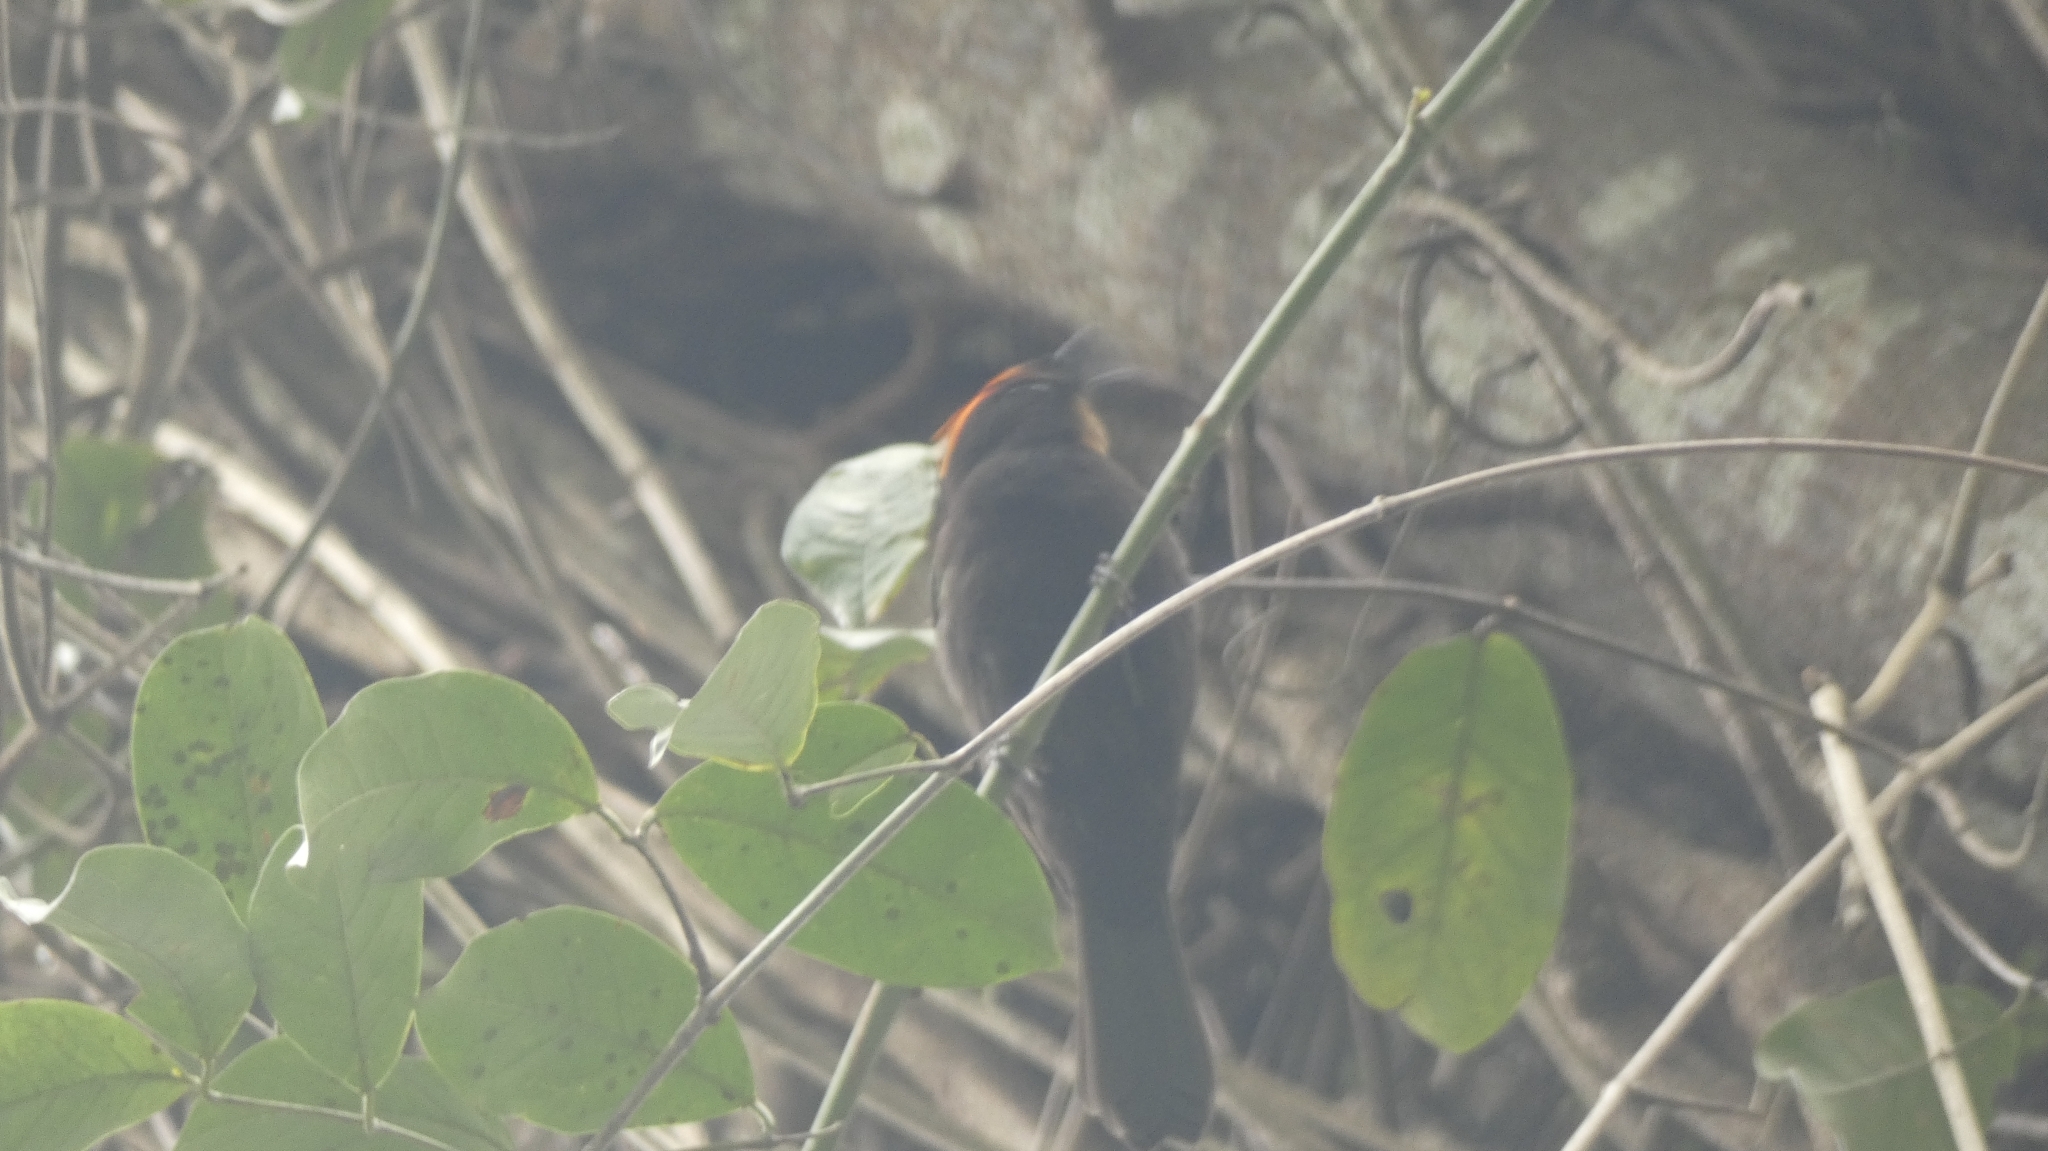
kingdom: Animalia
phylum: Chordata
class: Aves
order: Passeriformes
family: Thraupidae
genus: Loriotus
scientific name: Loriotus cristatus
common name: Flame-crested tanager
